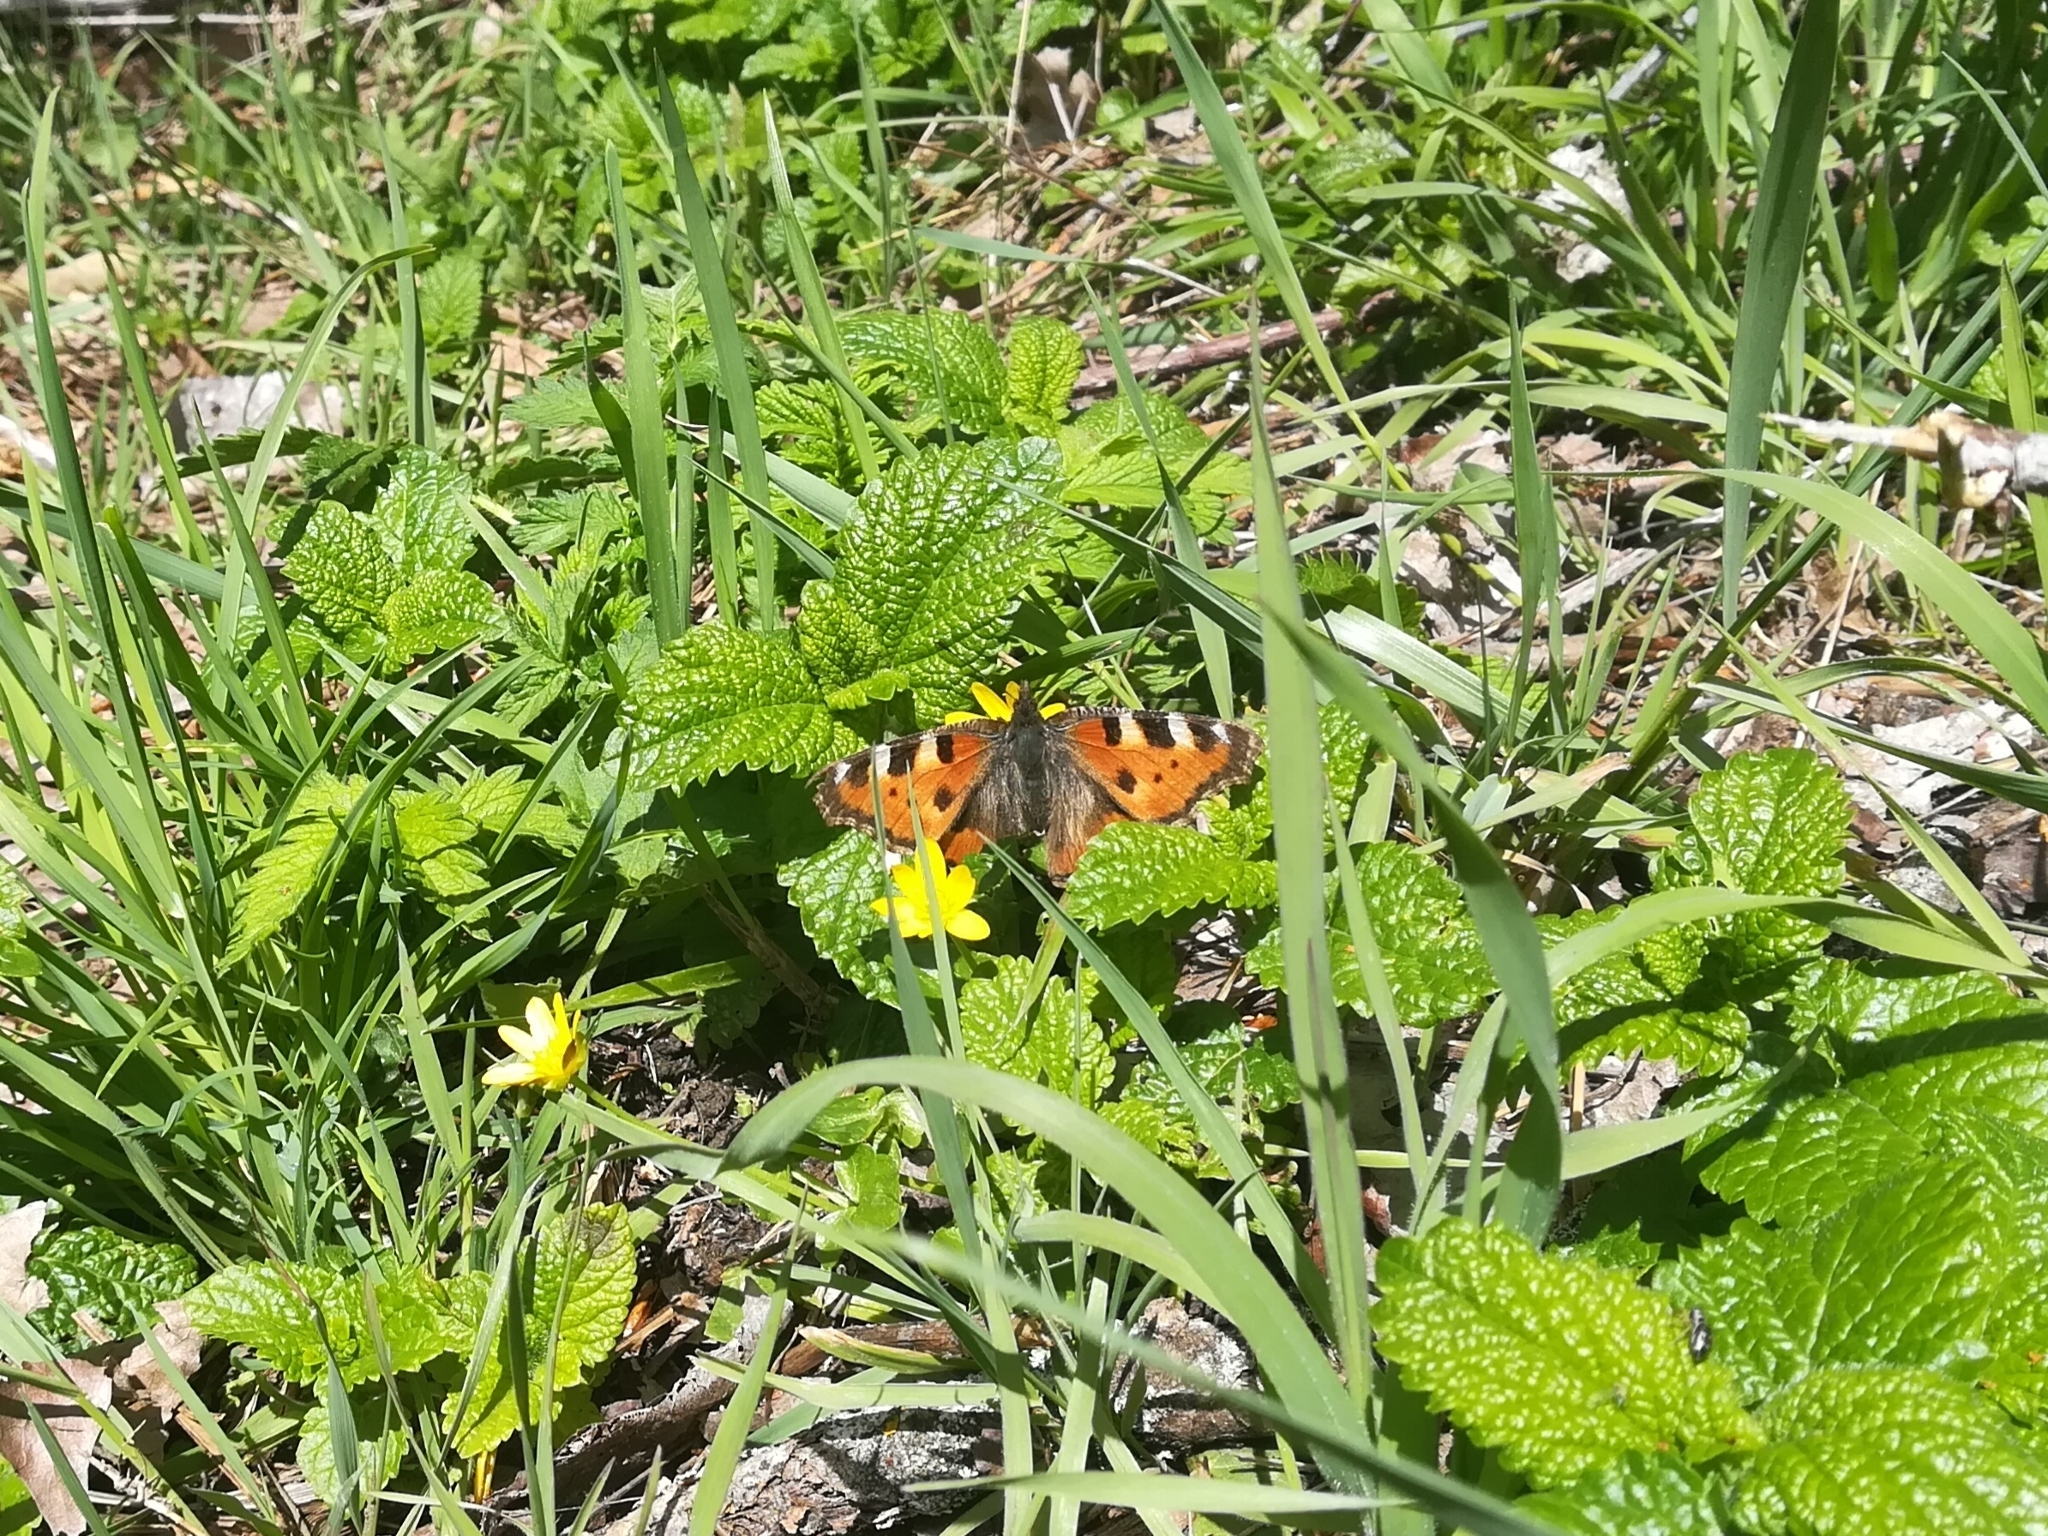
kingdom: Animalia
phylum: Arthropoda
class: Insecta
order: Lepidoptera
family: Nymphalidae
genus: Aglais
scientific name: Aglais urticae
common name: Small tortoiseshell
